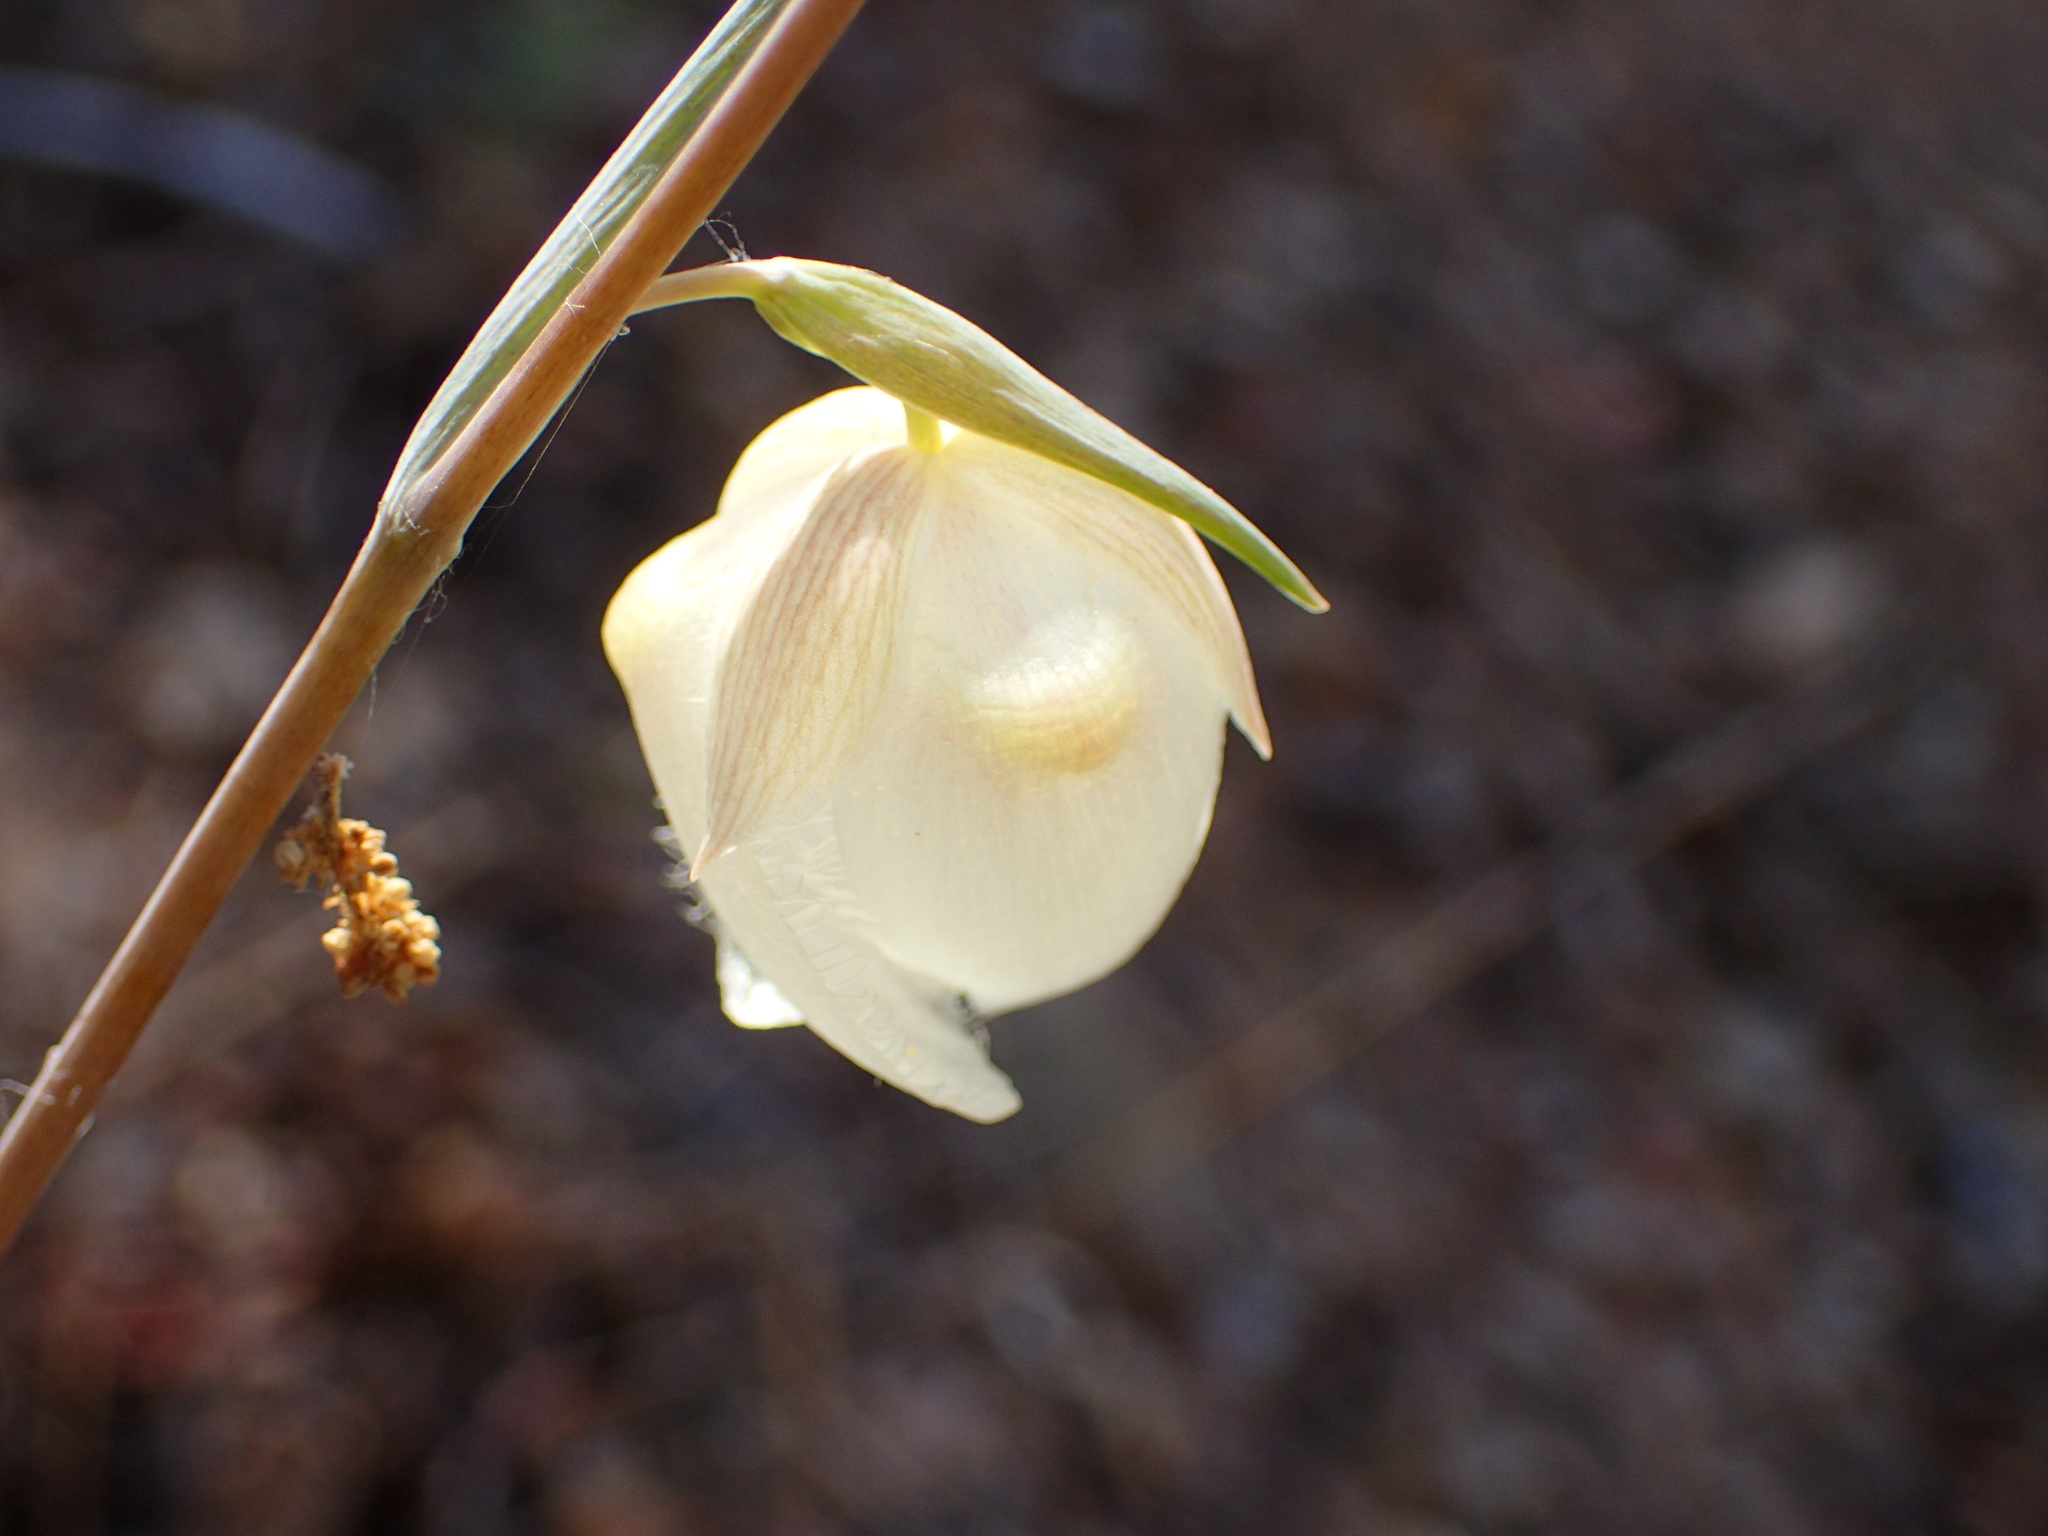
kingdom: Plantae
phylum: Tracheophyta
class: Liliopsida
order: Liliales
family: Liliaceae
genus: Calochortus
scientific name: Calochortus albus
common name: Fairy-lantern
